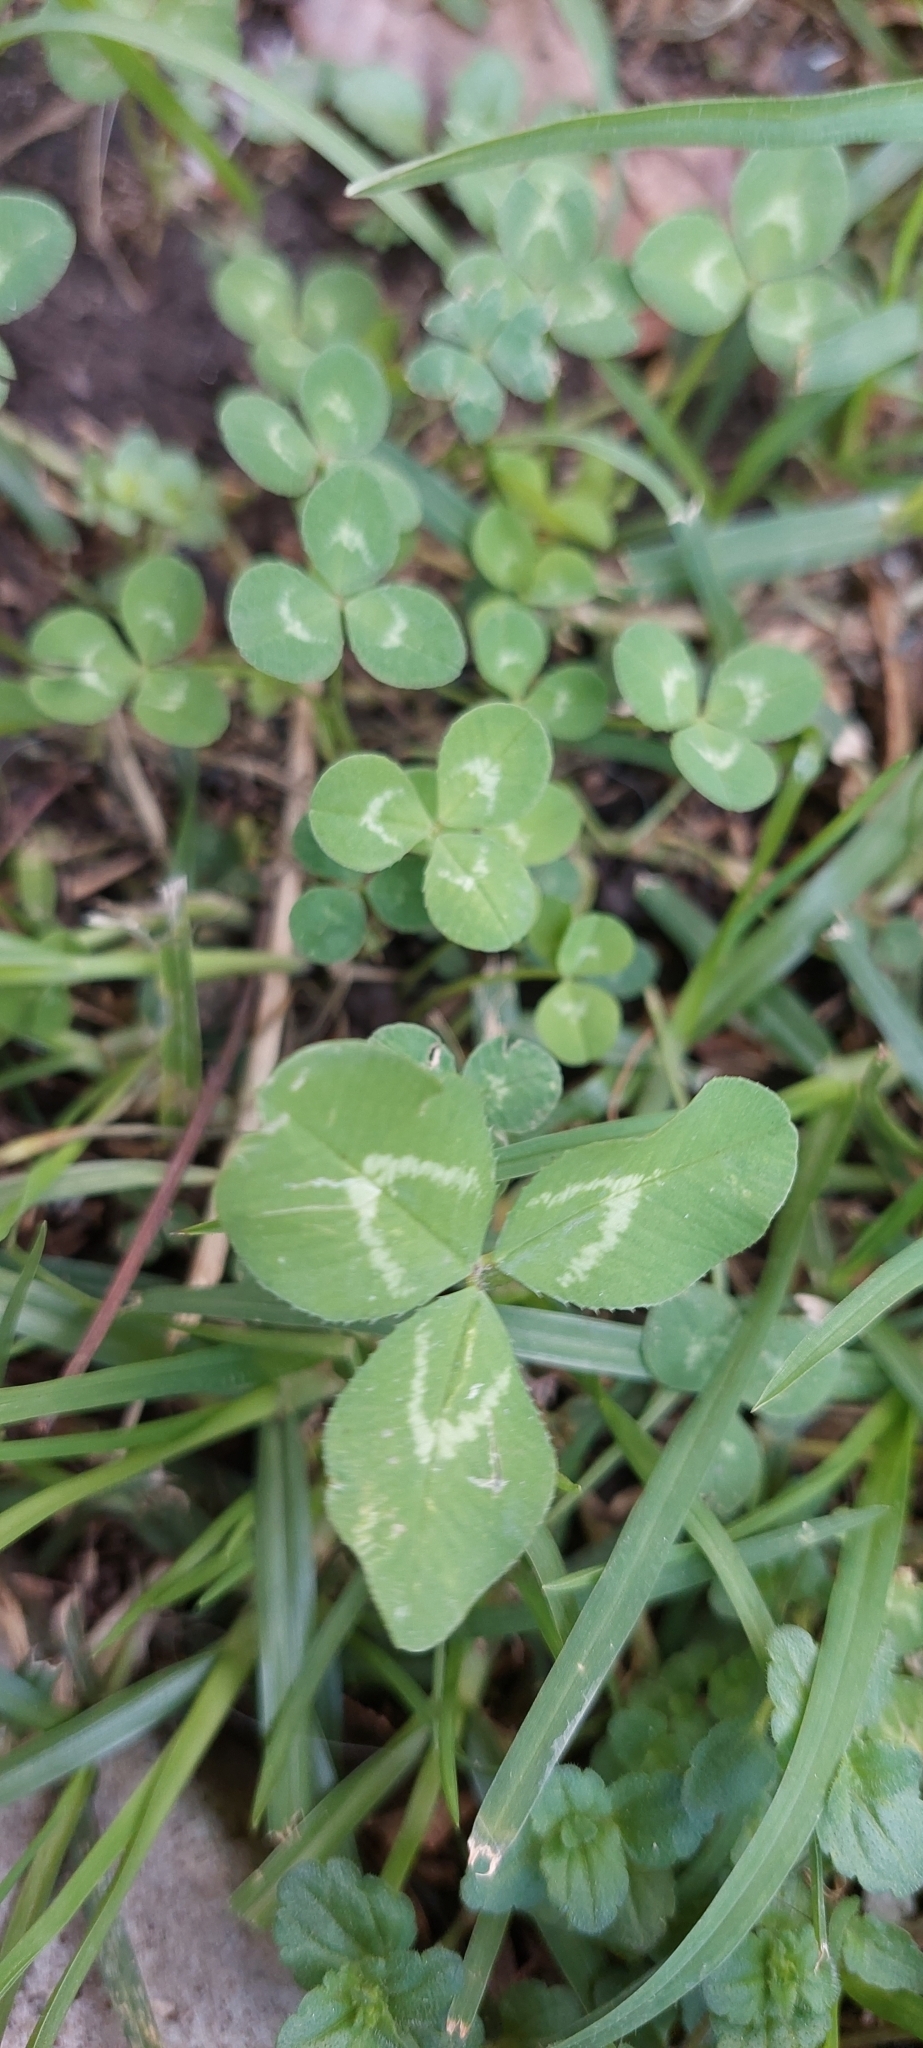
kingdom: Plantae
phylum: Tracheophyta
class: Magnoliopsida
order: Fabales
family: Fabaceae
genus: Trifolium
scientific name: Trifolium repens
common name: White clover
